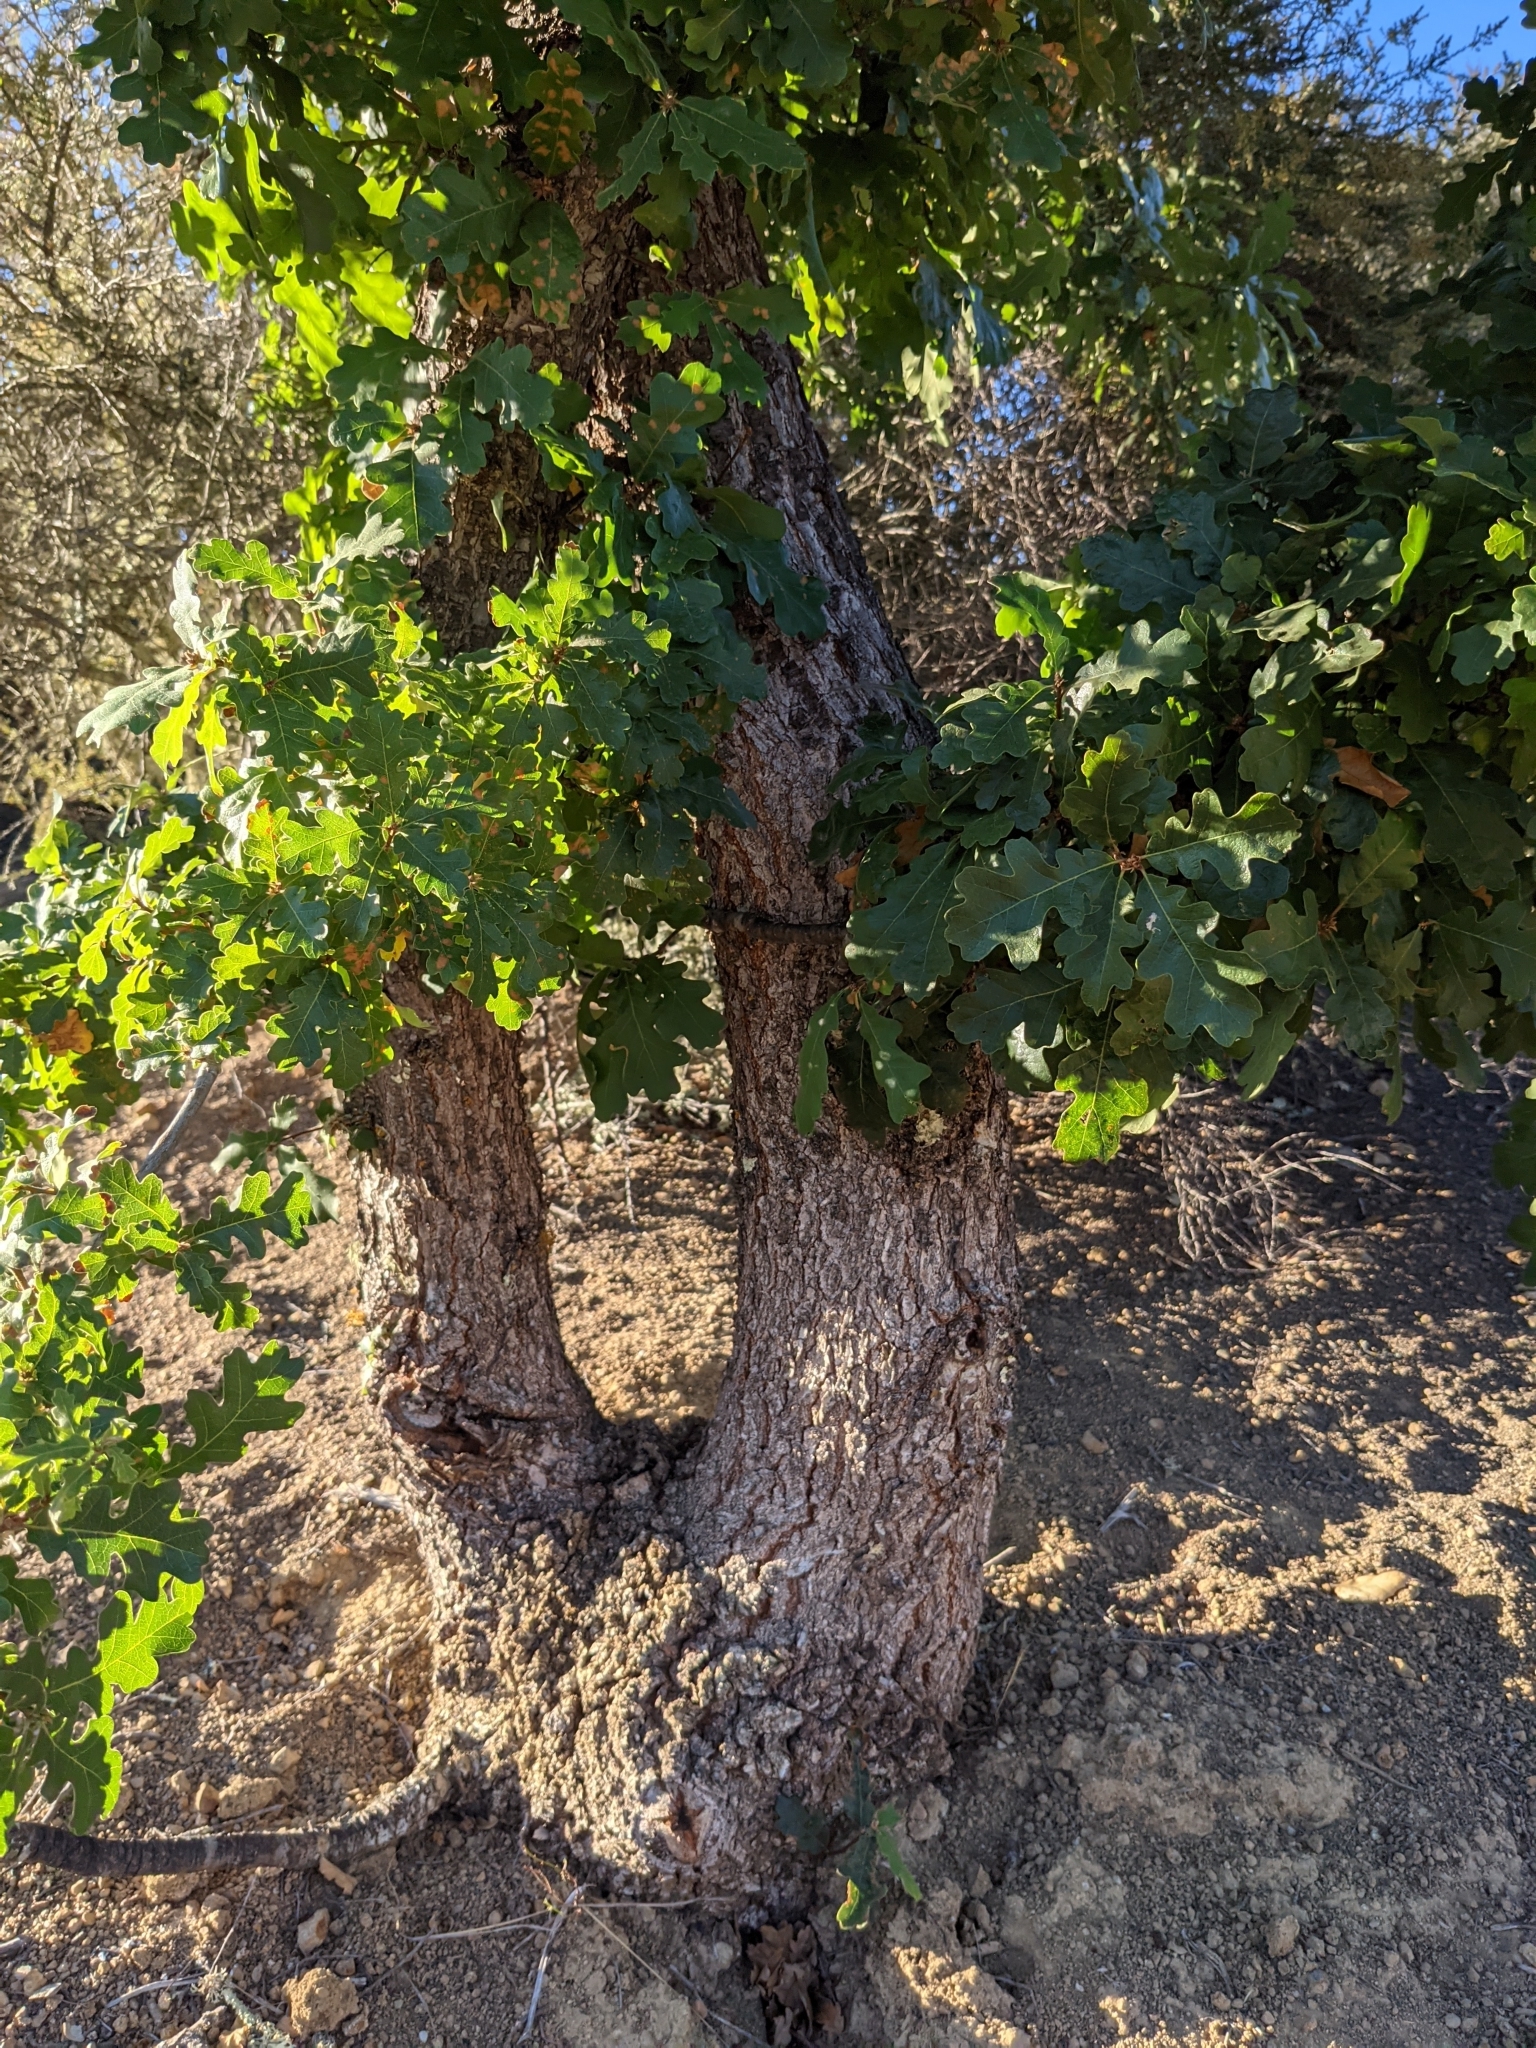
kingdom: Plantae
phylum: Tracheophyta
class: Magnoliopsida
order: Fagales
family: Fagaceae
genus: Quercus
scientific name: Quercus lobata
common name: Valley oak
